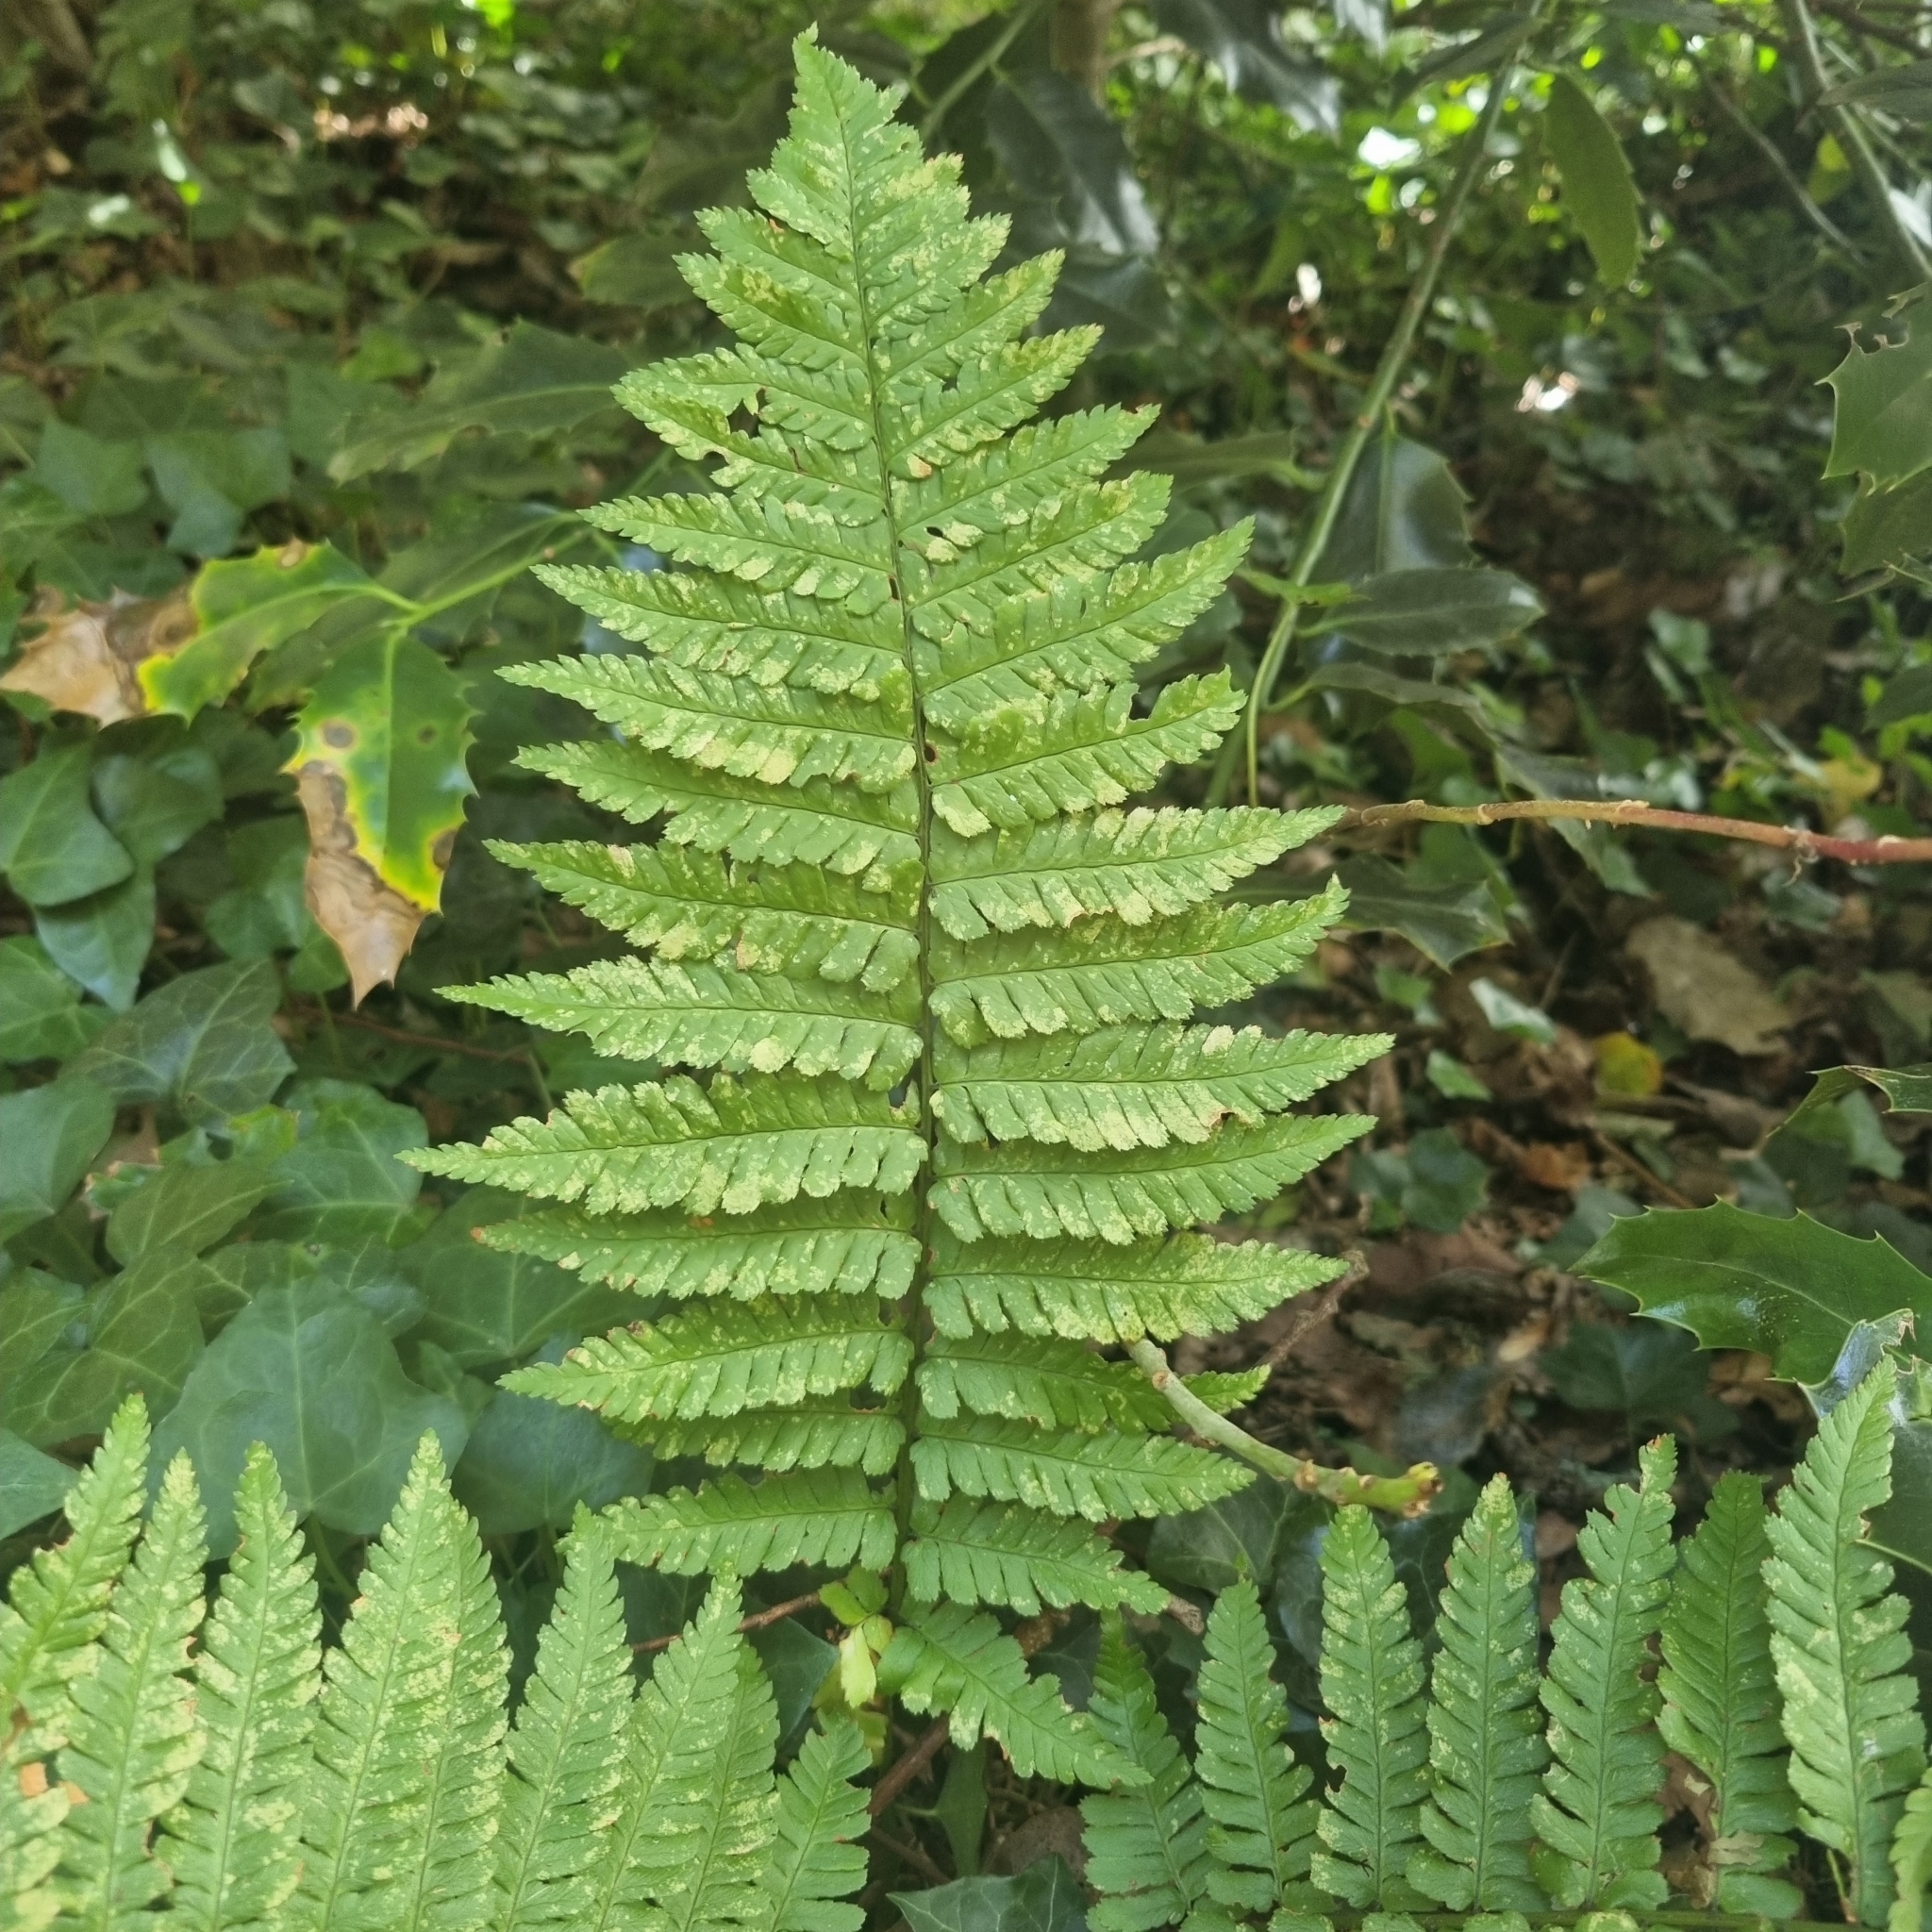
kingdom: Plantae
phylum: Tracheophyta
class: Polypodiopsida
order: Polypodiales
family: Dryopteridaceae
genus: Dryopteris
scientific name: Dryopteris filix-mas
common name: Male fern
